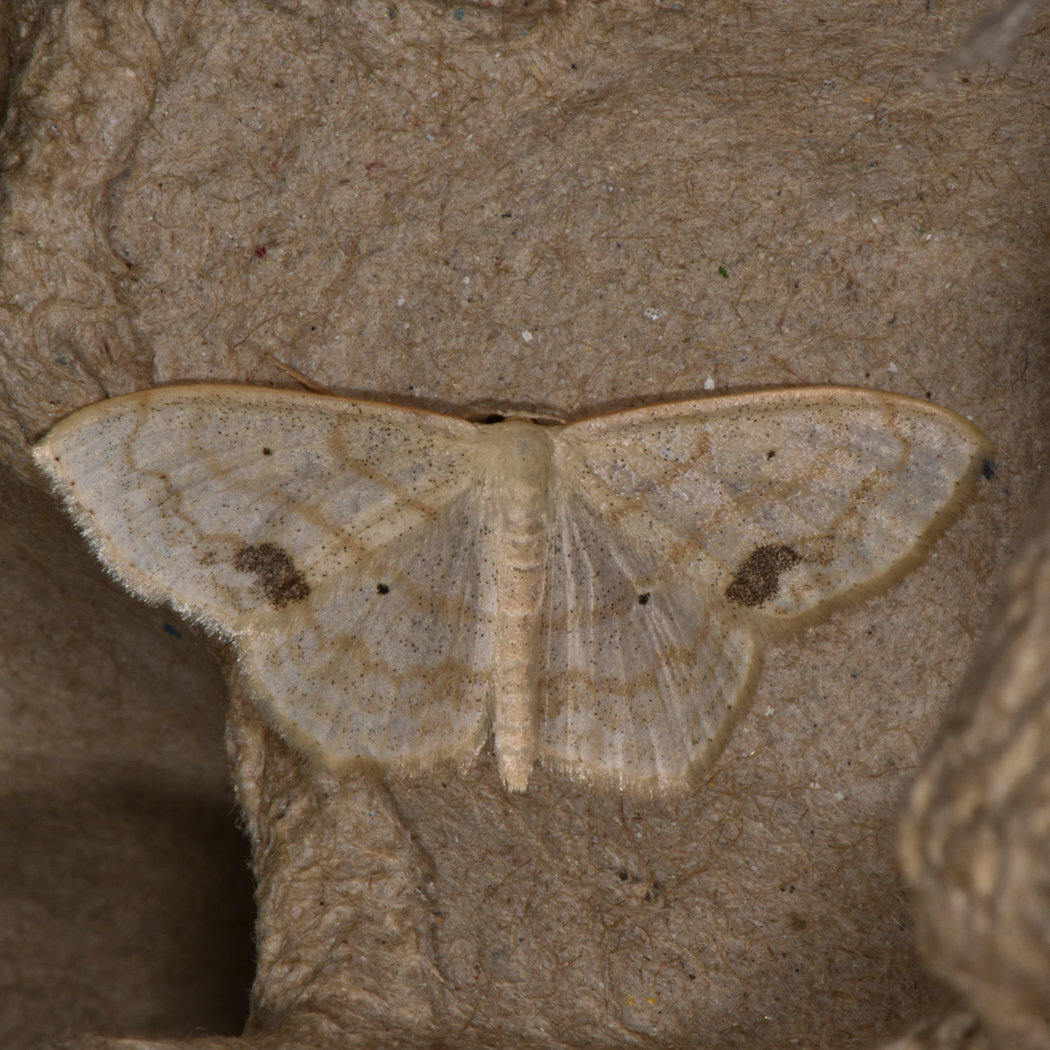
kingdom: Animalia
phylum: Arthropoda
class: Insecta
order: Lepidoptera
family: Geometridae
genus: Scopula
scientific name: Scopula limboundata
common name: Large lace border
